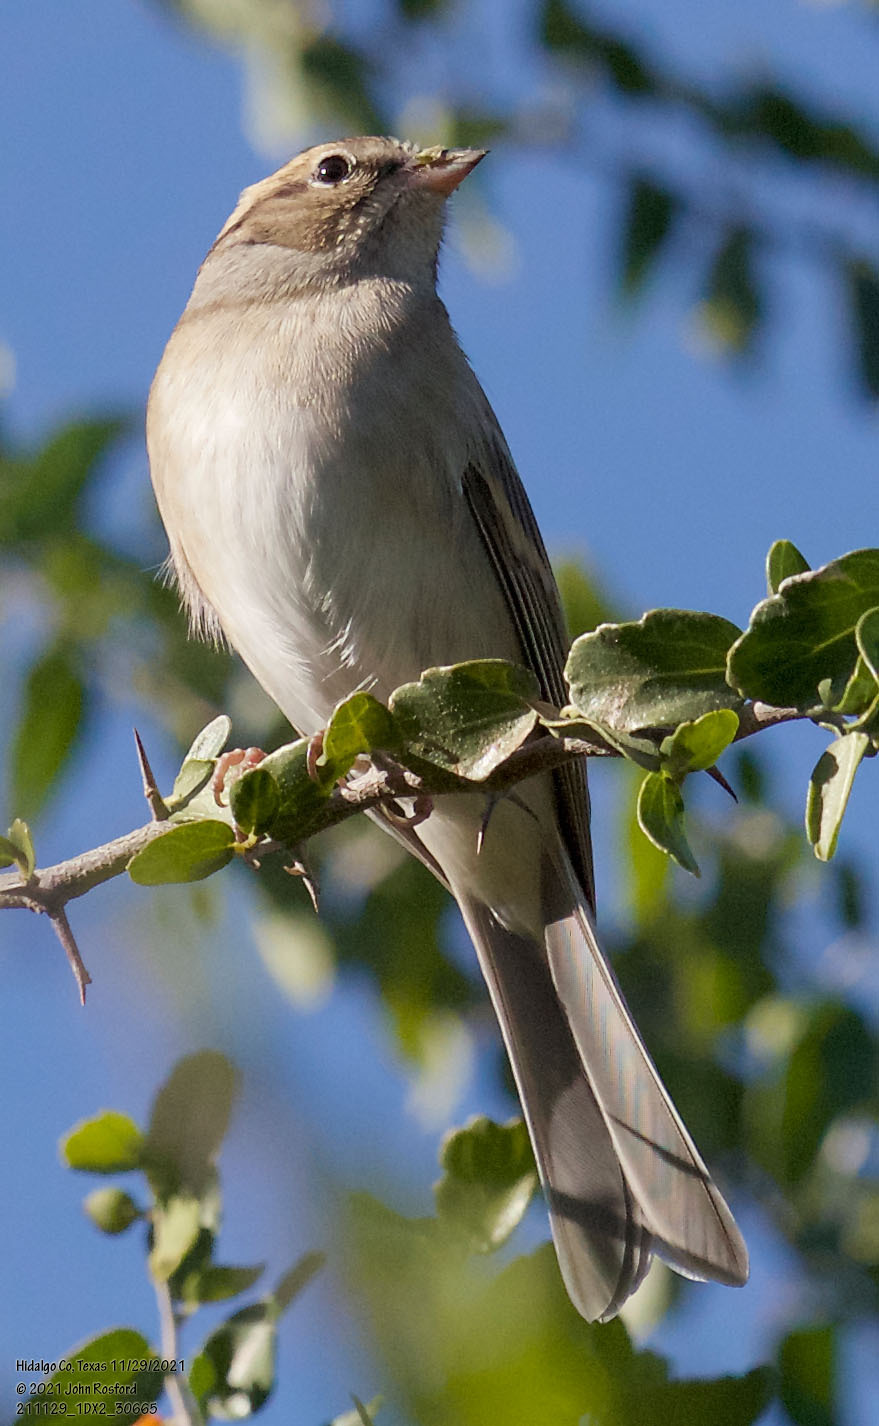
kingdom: Animalia
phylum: Chordata
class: Aves
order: Passeriformes
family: Passerellidae
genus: Spizella
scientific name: Spizella passerina
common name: Chipping sparrow
